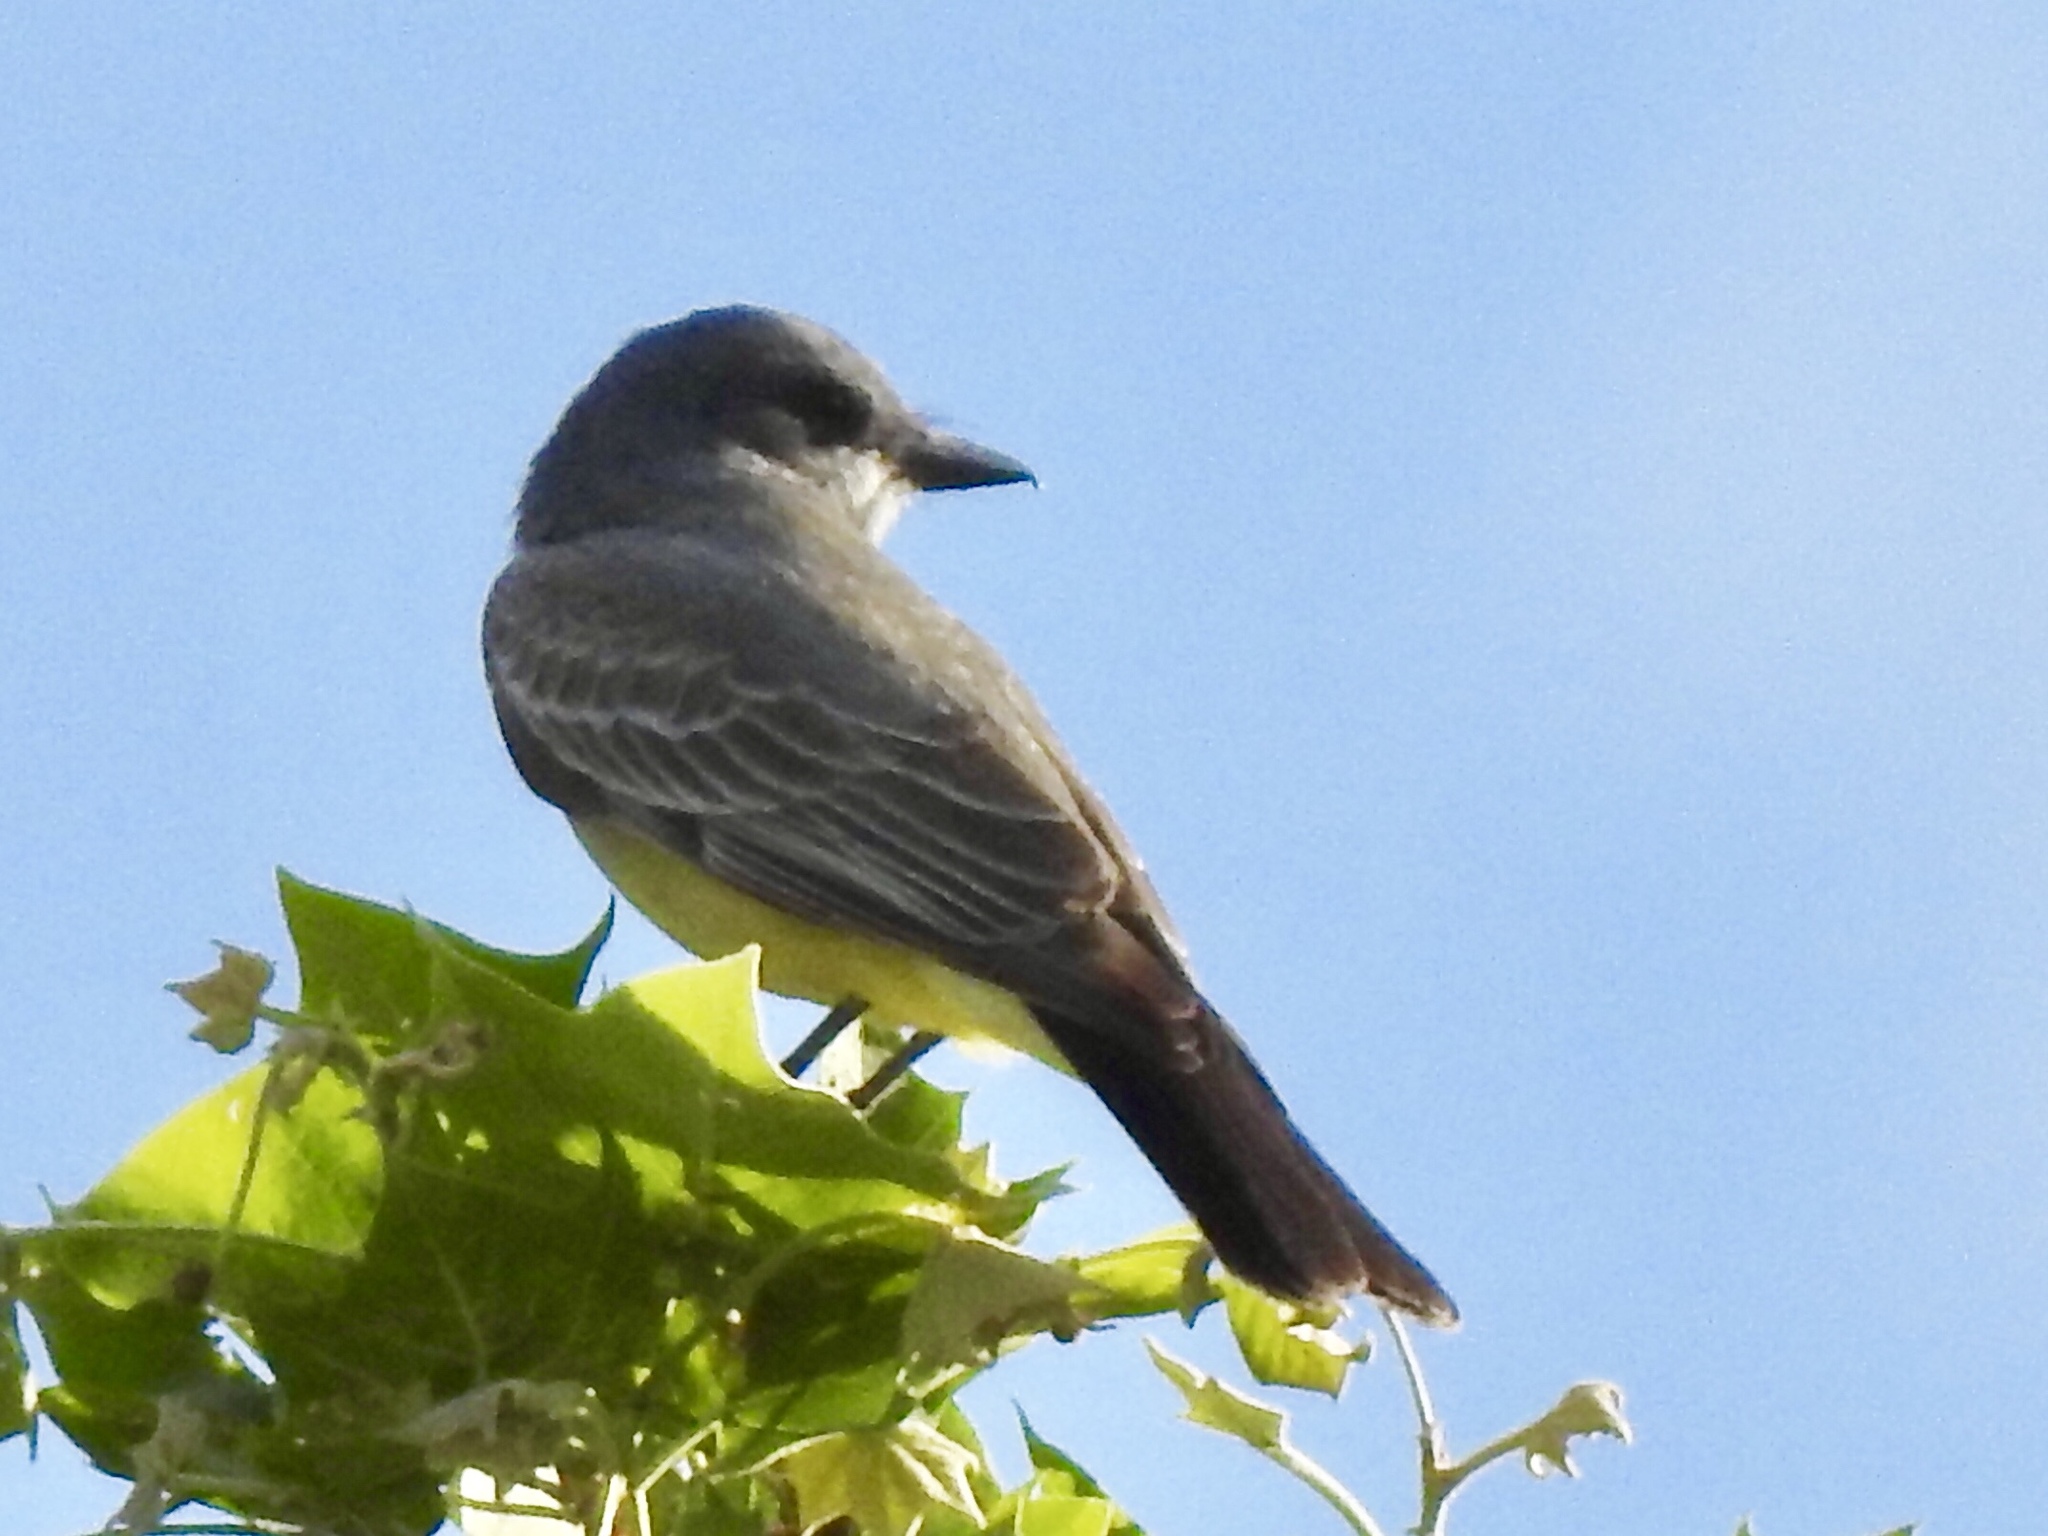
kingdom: Animalia
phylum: Chordata
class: Aves
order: Passeriformes
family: Tyrannidae
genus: Tyrannus
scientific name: Tyrannus vociferans
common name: Cassin's kingbird
